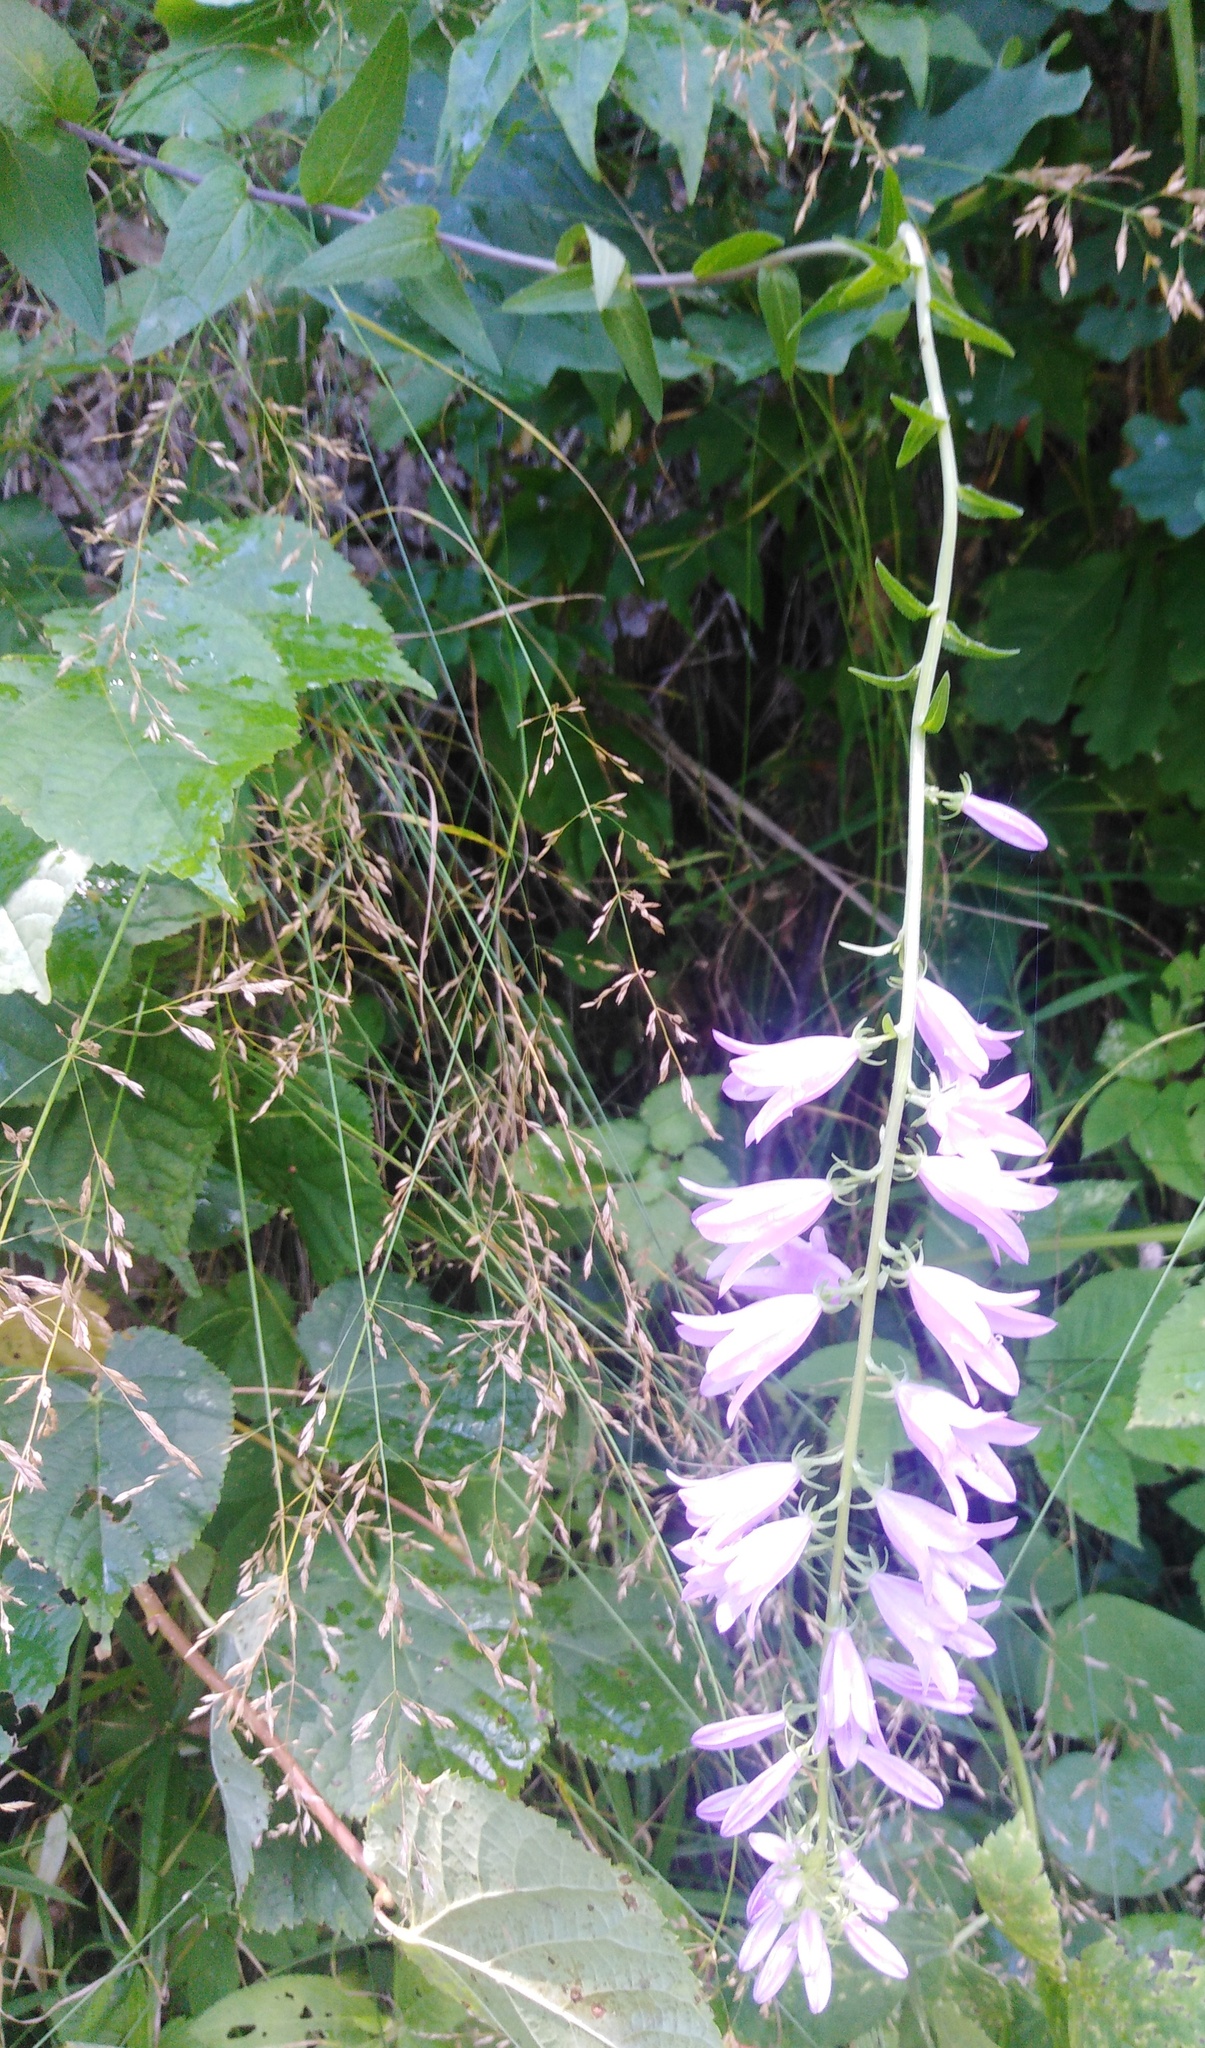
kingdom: Plantae
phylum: Tracheophyta
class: Magnoliopsida
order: Asterales
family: Campanulaceae
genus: Campanula
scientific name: Campanula bononiensis
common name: Pale bellflower
